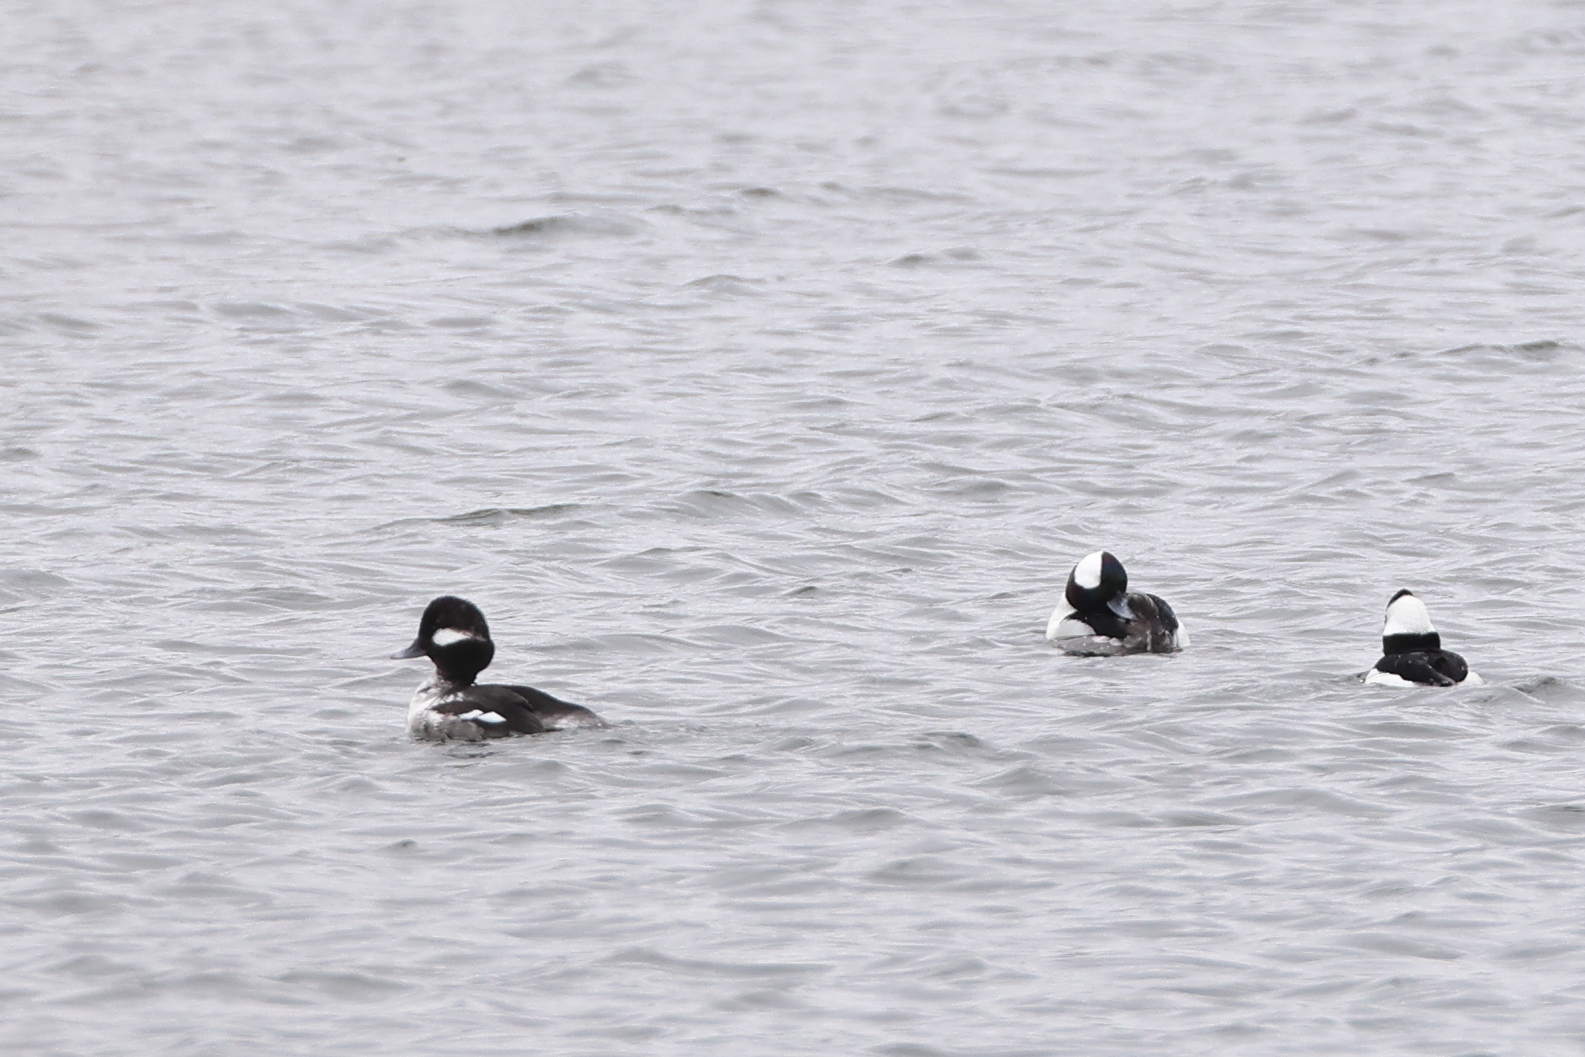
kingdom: Animalia
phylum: Chordata
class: Aves
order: Anseriformes
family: Anatidae
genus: Bucephala
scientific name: Bucephala albeola
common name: Bufflehead
